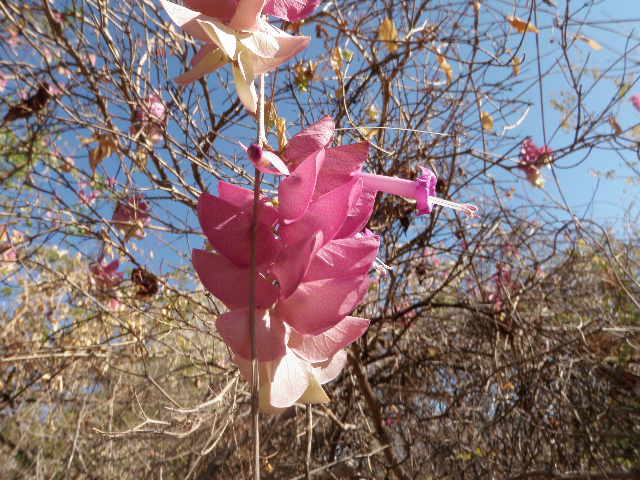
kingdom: Plantae
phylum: Tracheophyta
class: Magnoliopsida
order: Solanales
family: Convolvulaceae
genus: Ipomoea
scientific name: Ipomoea bracteata
